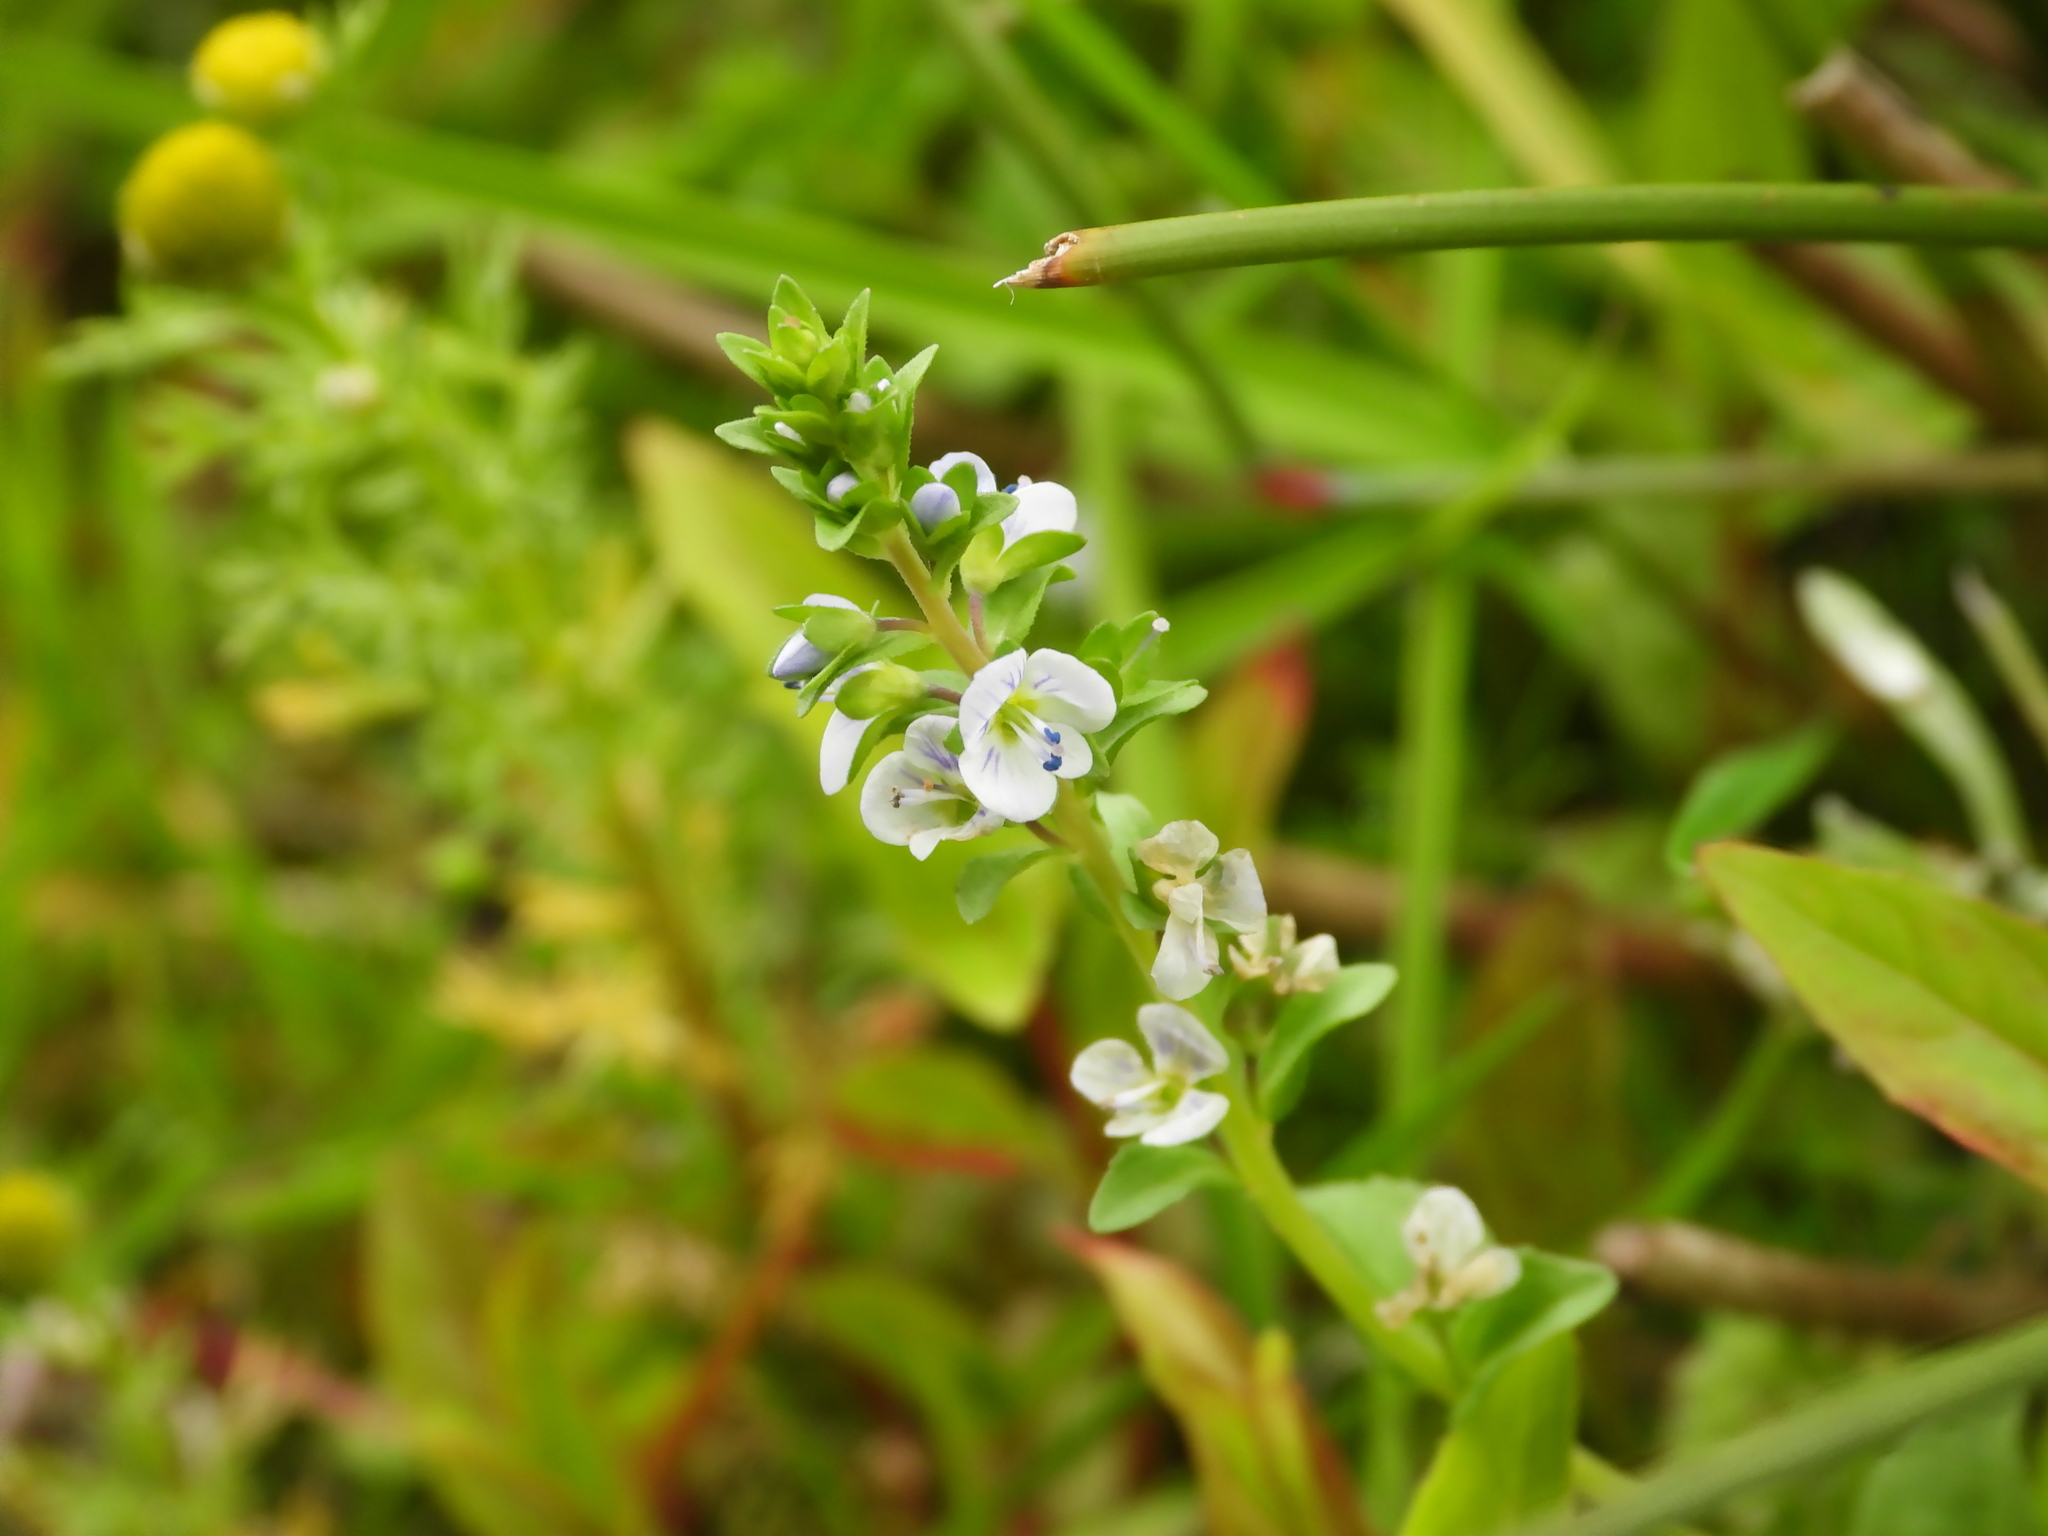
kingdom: Plantae
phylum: Tracheophyta
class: Magnoliopsida
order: Lamiales
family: Plantaginaceae
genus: Veronica
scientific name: Veronica serpyllifolia
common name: Thyme-leaved speedwell
